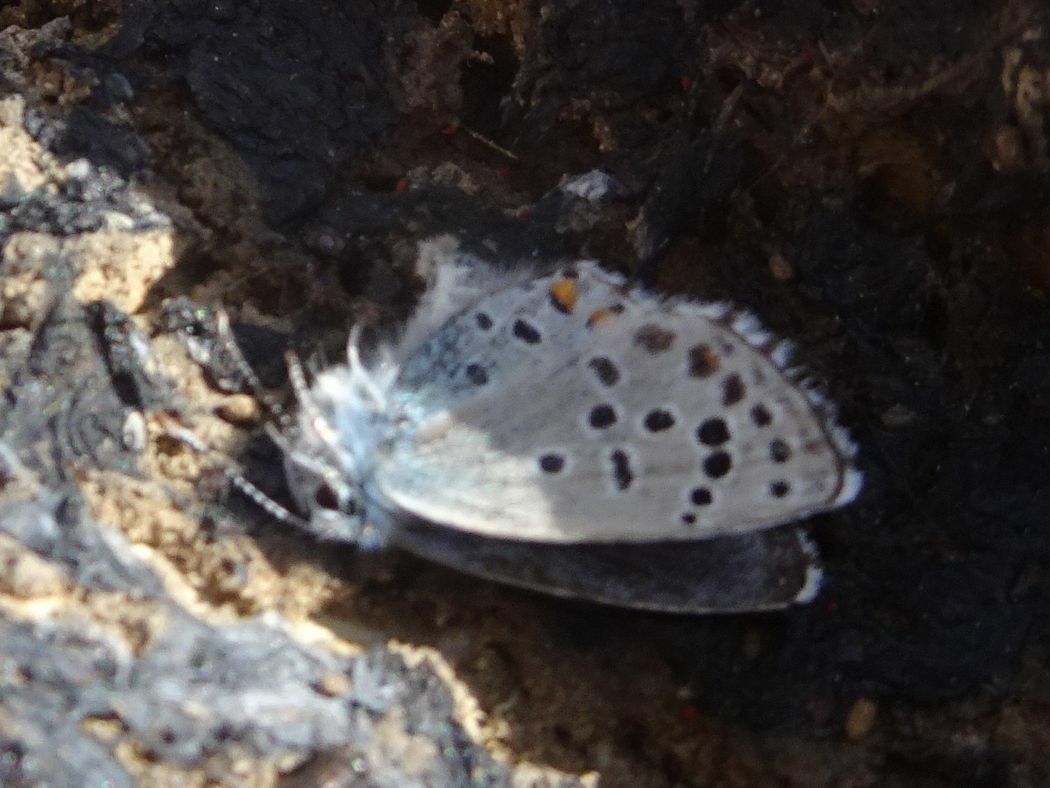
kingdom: Animalia
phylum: Arthropoda
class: Insecta
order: Lepidoptera
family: Lycaenidae
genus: Pseudophilotes
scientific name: Pseudophilotes baton
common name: Baton blue
